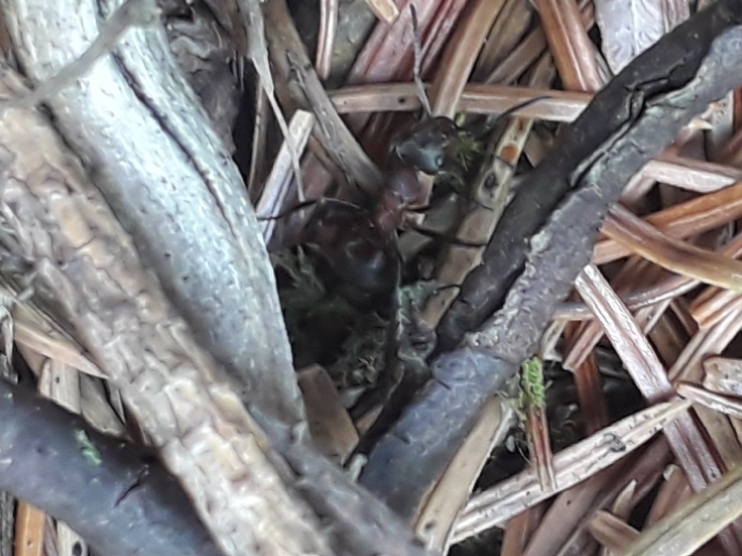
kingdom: Animalia
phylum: Arthropoda
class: Insecta
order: Hymenoptera
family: Formicidae
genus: Formica
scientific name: Formica lugubris
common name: Sinister mound ant
